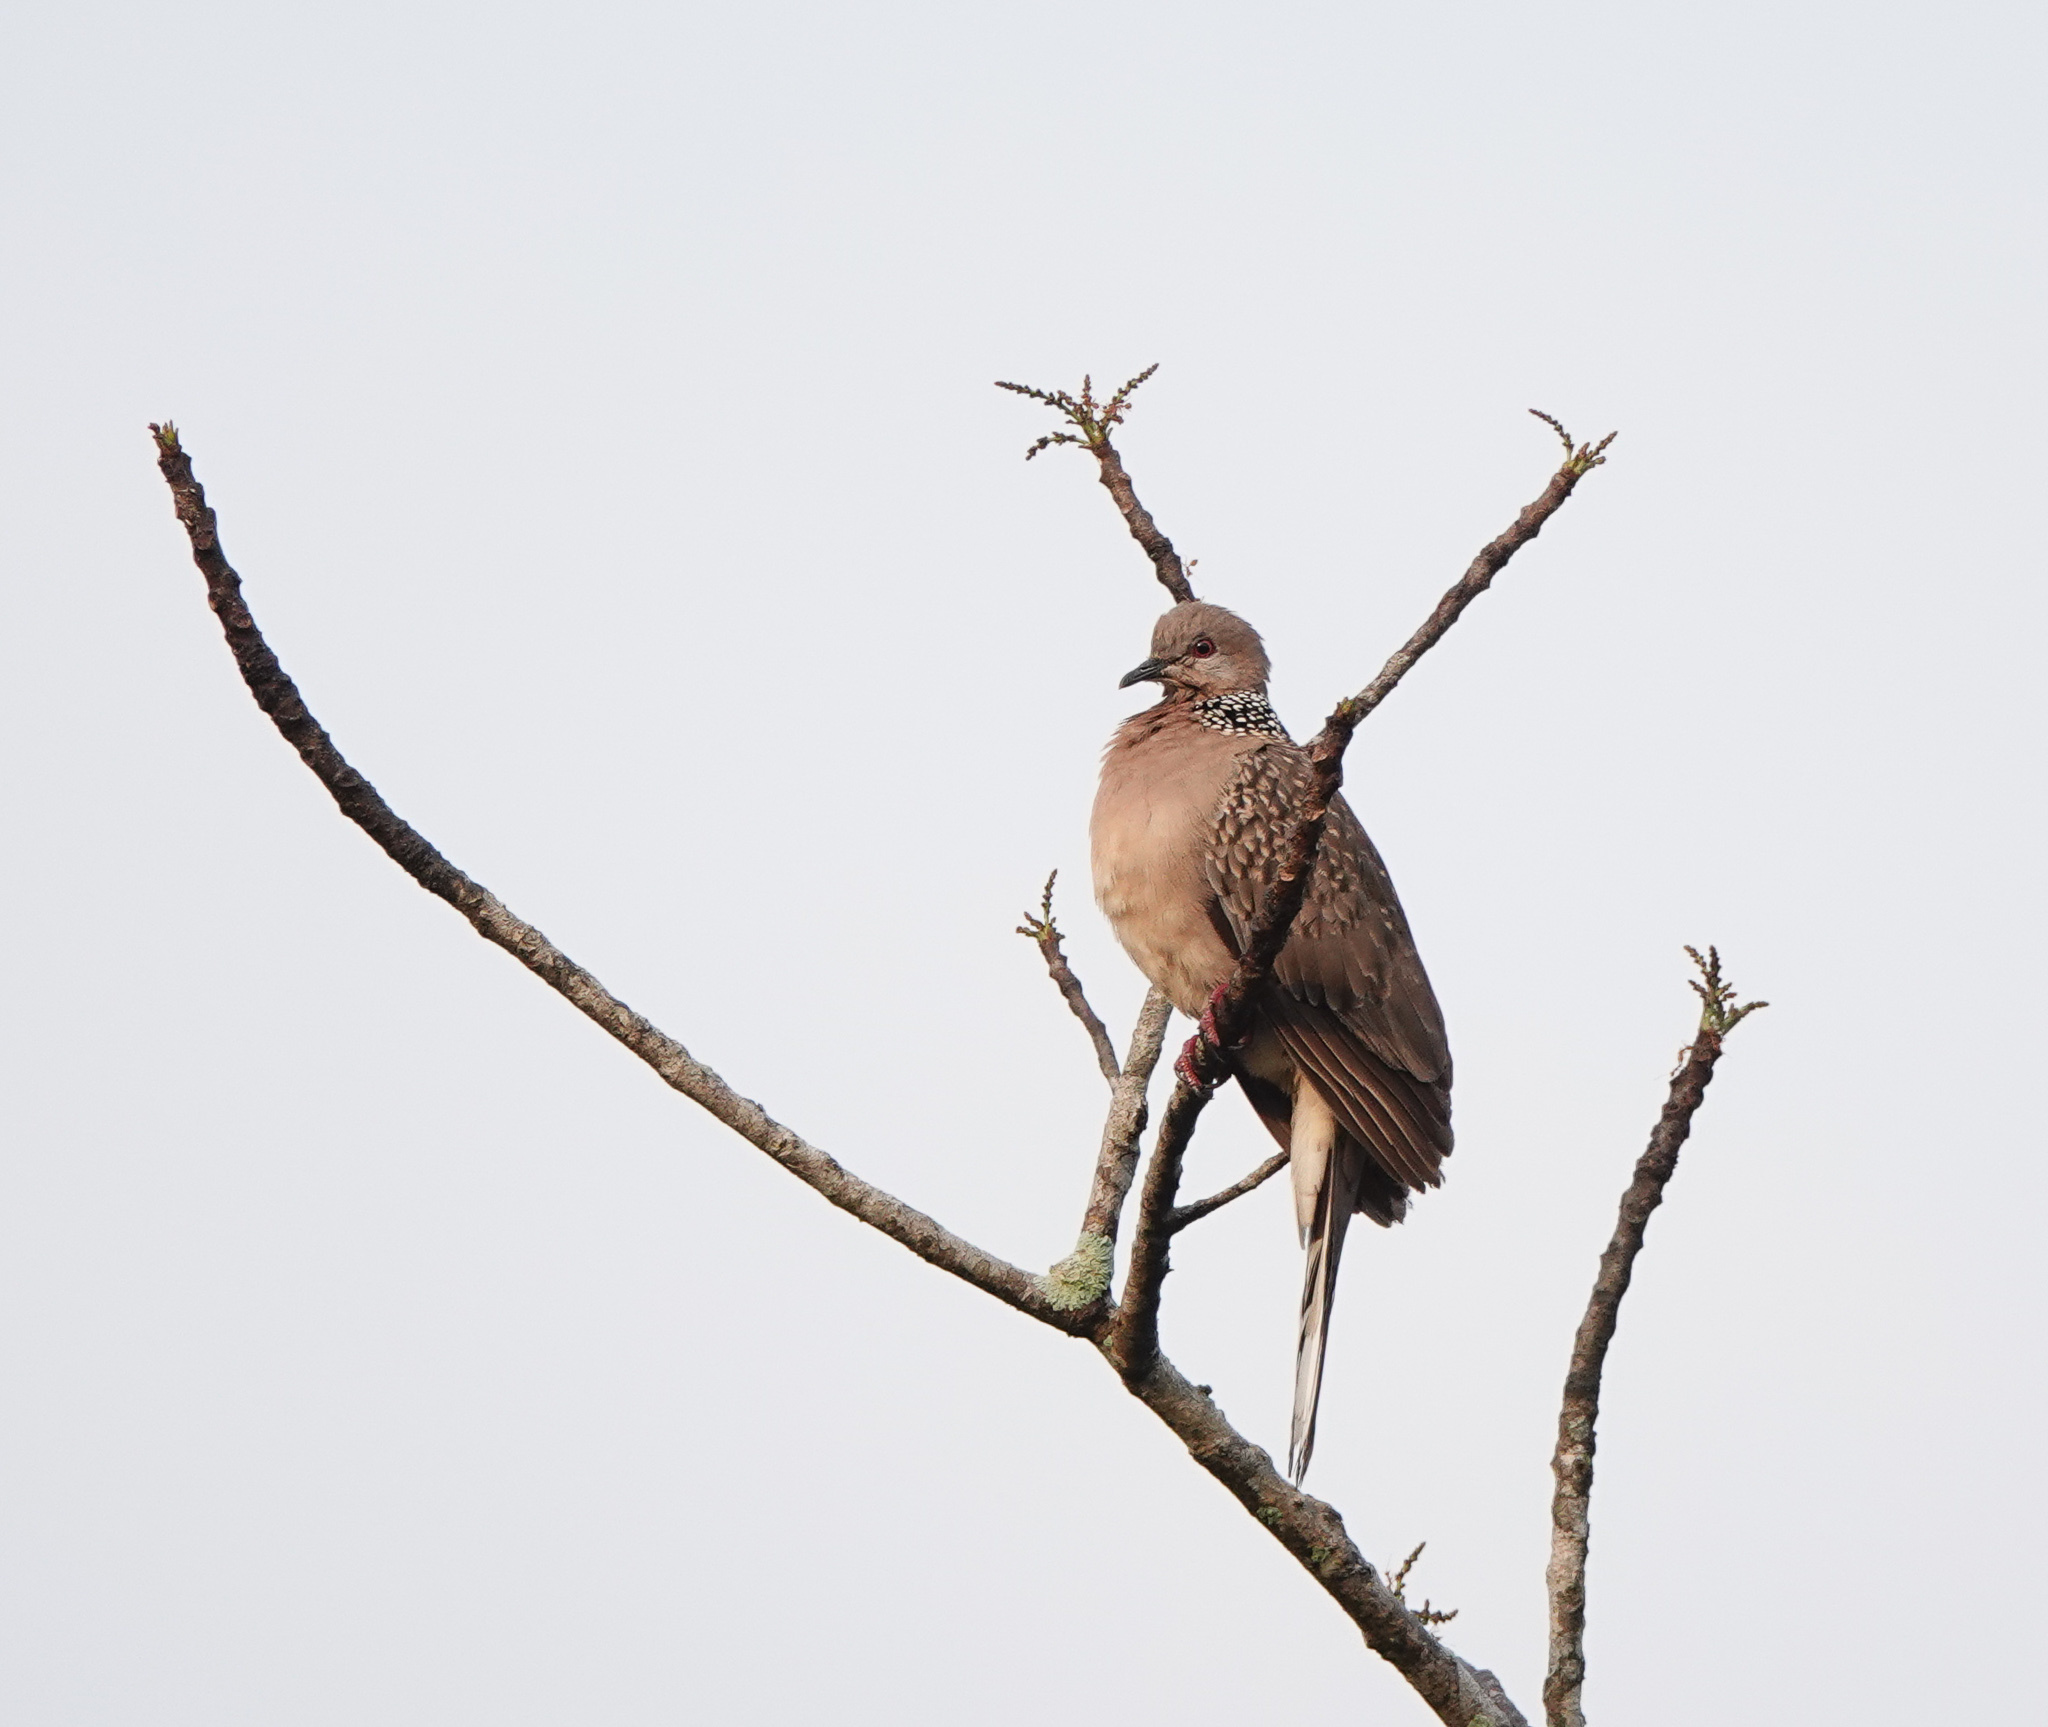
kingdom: Animalia
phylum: Chordata
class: Aves
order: Columbiformes
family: Columbidae
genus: Spilopelia
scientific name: Spilopelia chinensis
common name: Spotted dove
